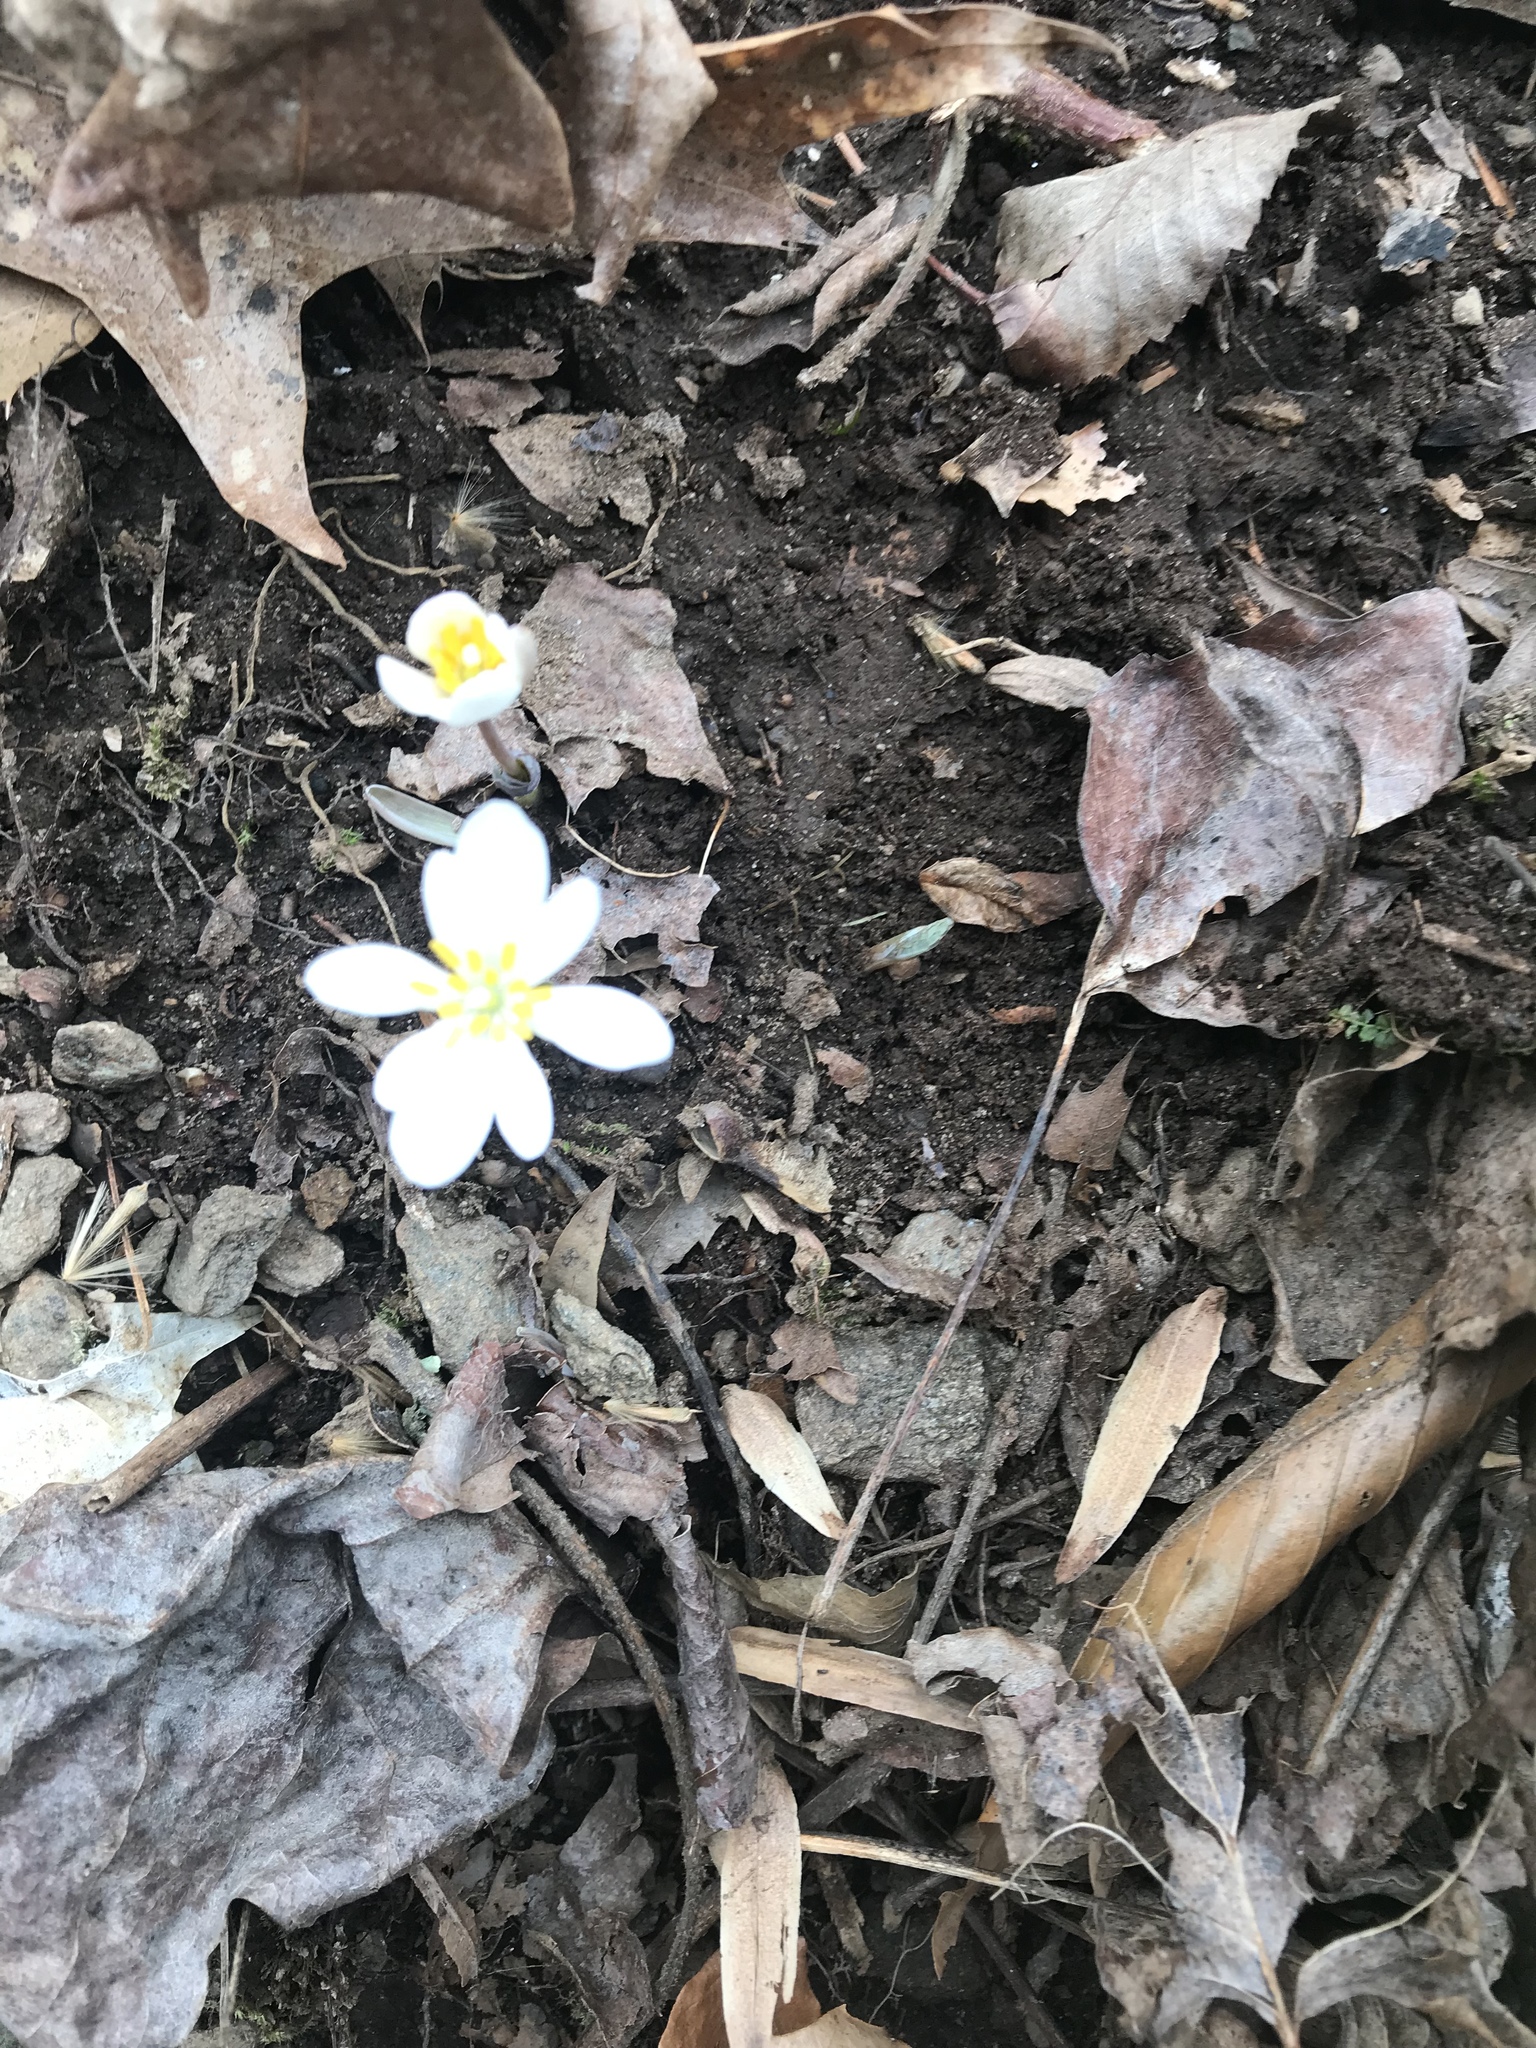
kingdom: Plantae
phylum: Tracheophyta
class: Magnoliopsida
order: Ranunculales
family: Papaveraceae
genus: Sanguinaria
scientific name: Sanguinaria canadensis
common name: Bloodroot
